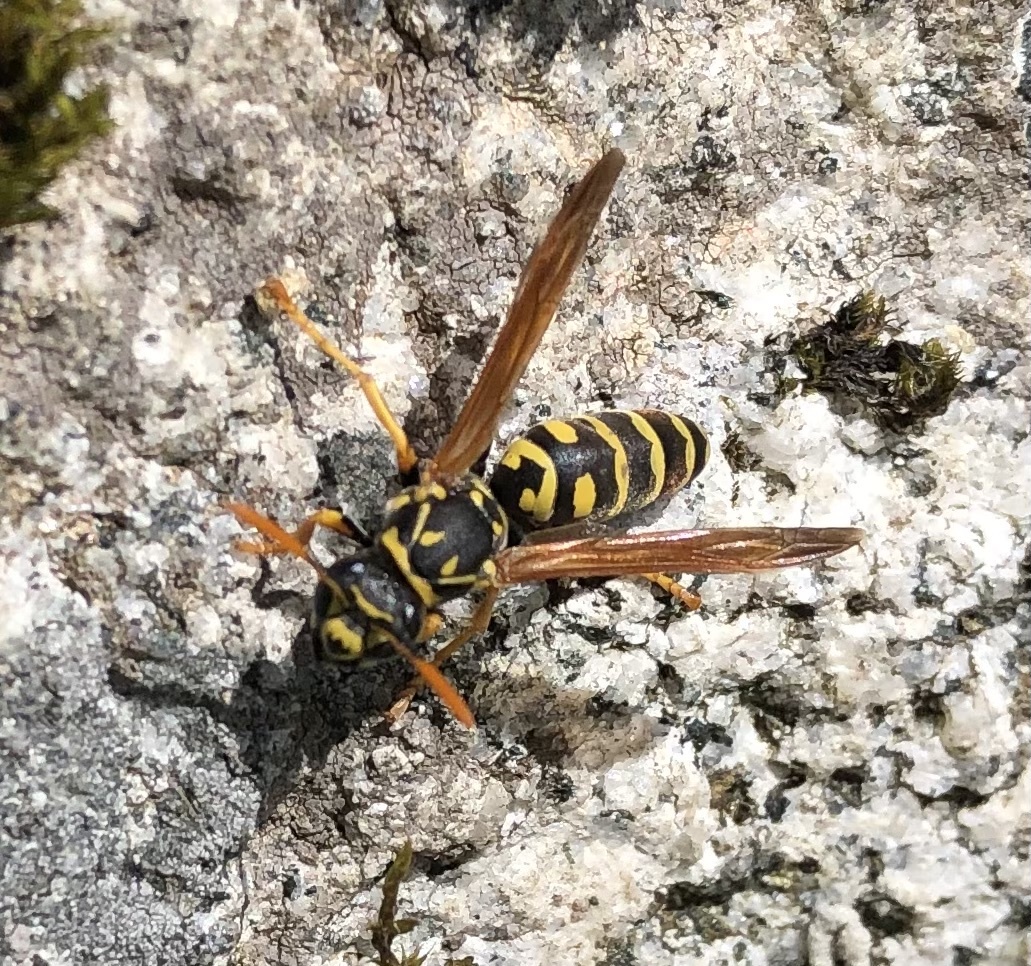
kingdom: Animalia
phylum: Arthropoda
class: Insecta
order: Hymenoptera
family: Eumenidae
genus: Polistes
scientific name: Polistes dominula
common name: Paper wasp
